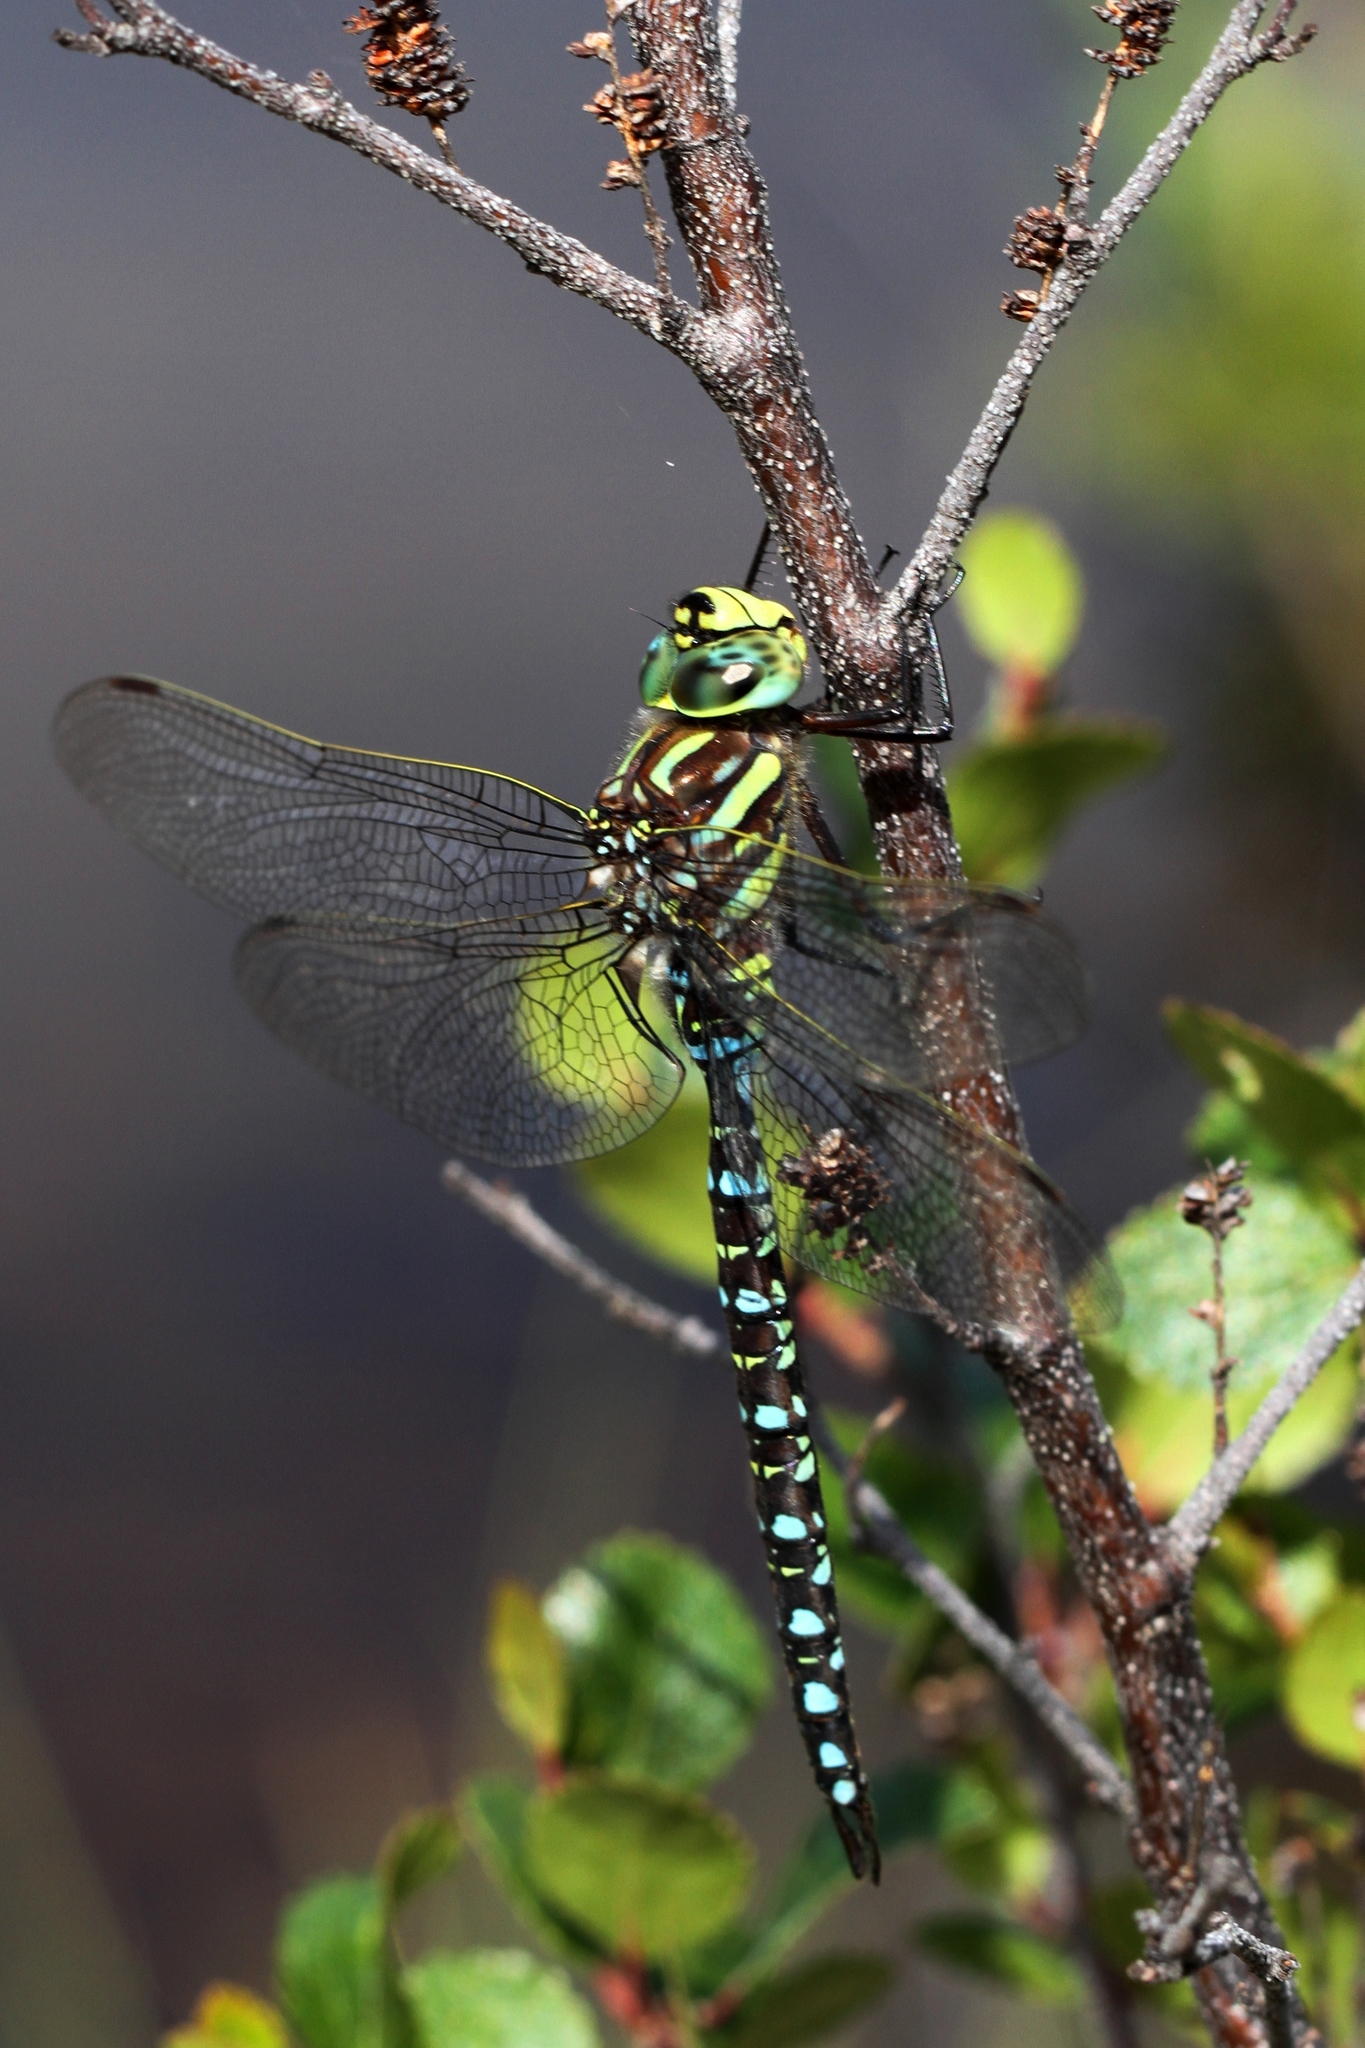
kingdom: Animalia
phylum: Arthropoda
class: Insecta
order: Odonata
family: Aeshnidae
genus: Aeshna
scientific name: Aeshna juncea
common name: Moorland hawker
